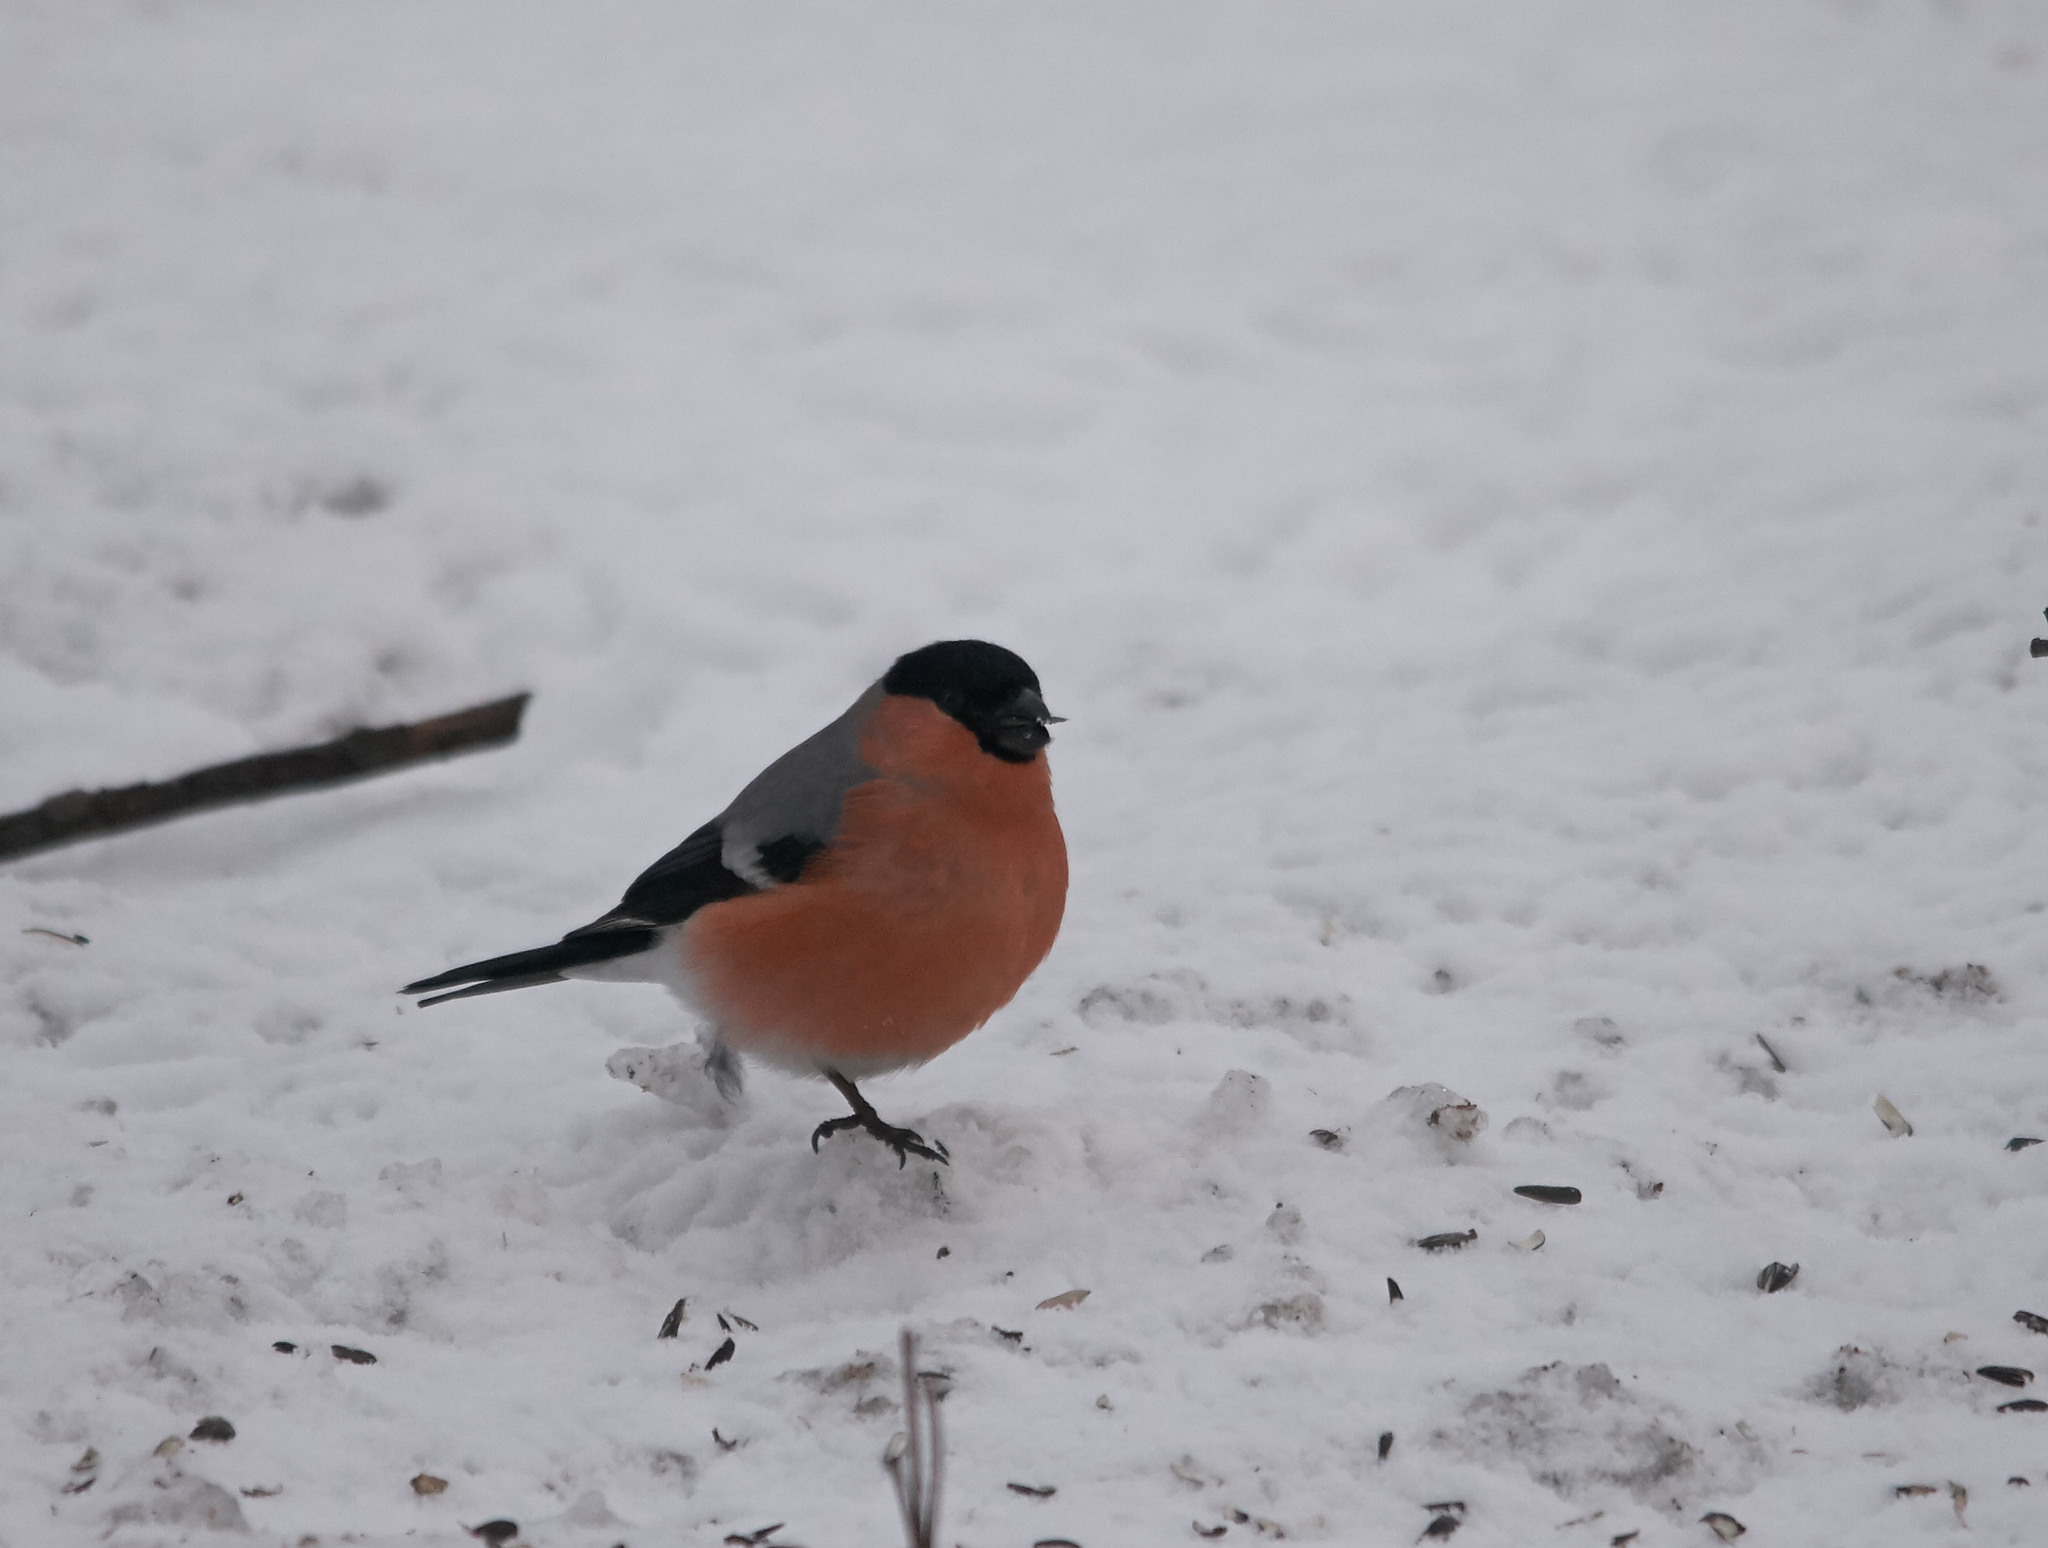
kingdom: Animalia
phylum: Chordata
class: Aves
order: Passeriformes
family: Fringillidae
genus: Pyrrhula
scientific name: Pyrrhula pyrrhula
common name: Eurasian bullfinch
